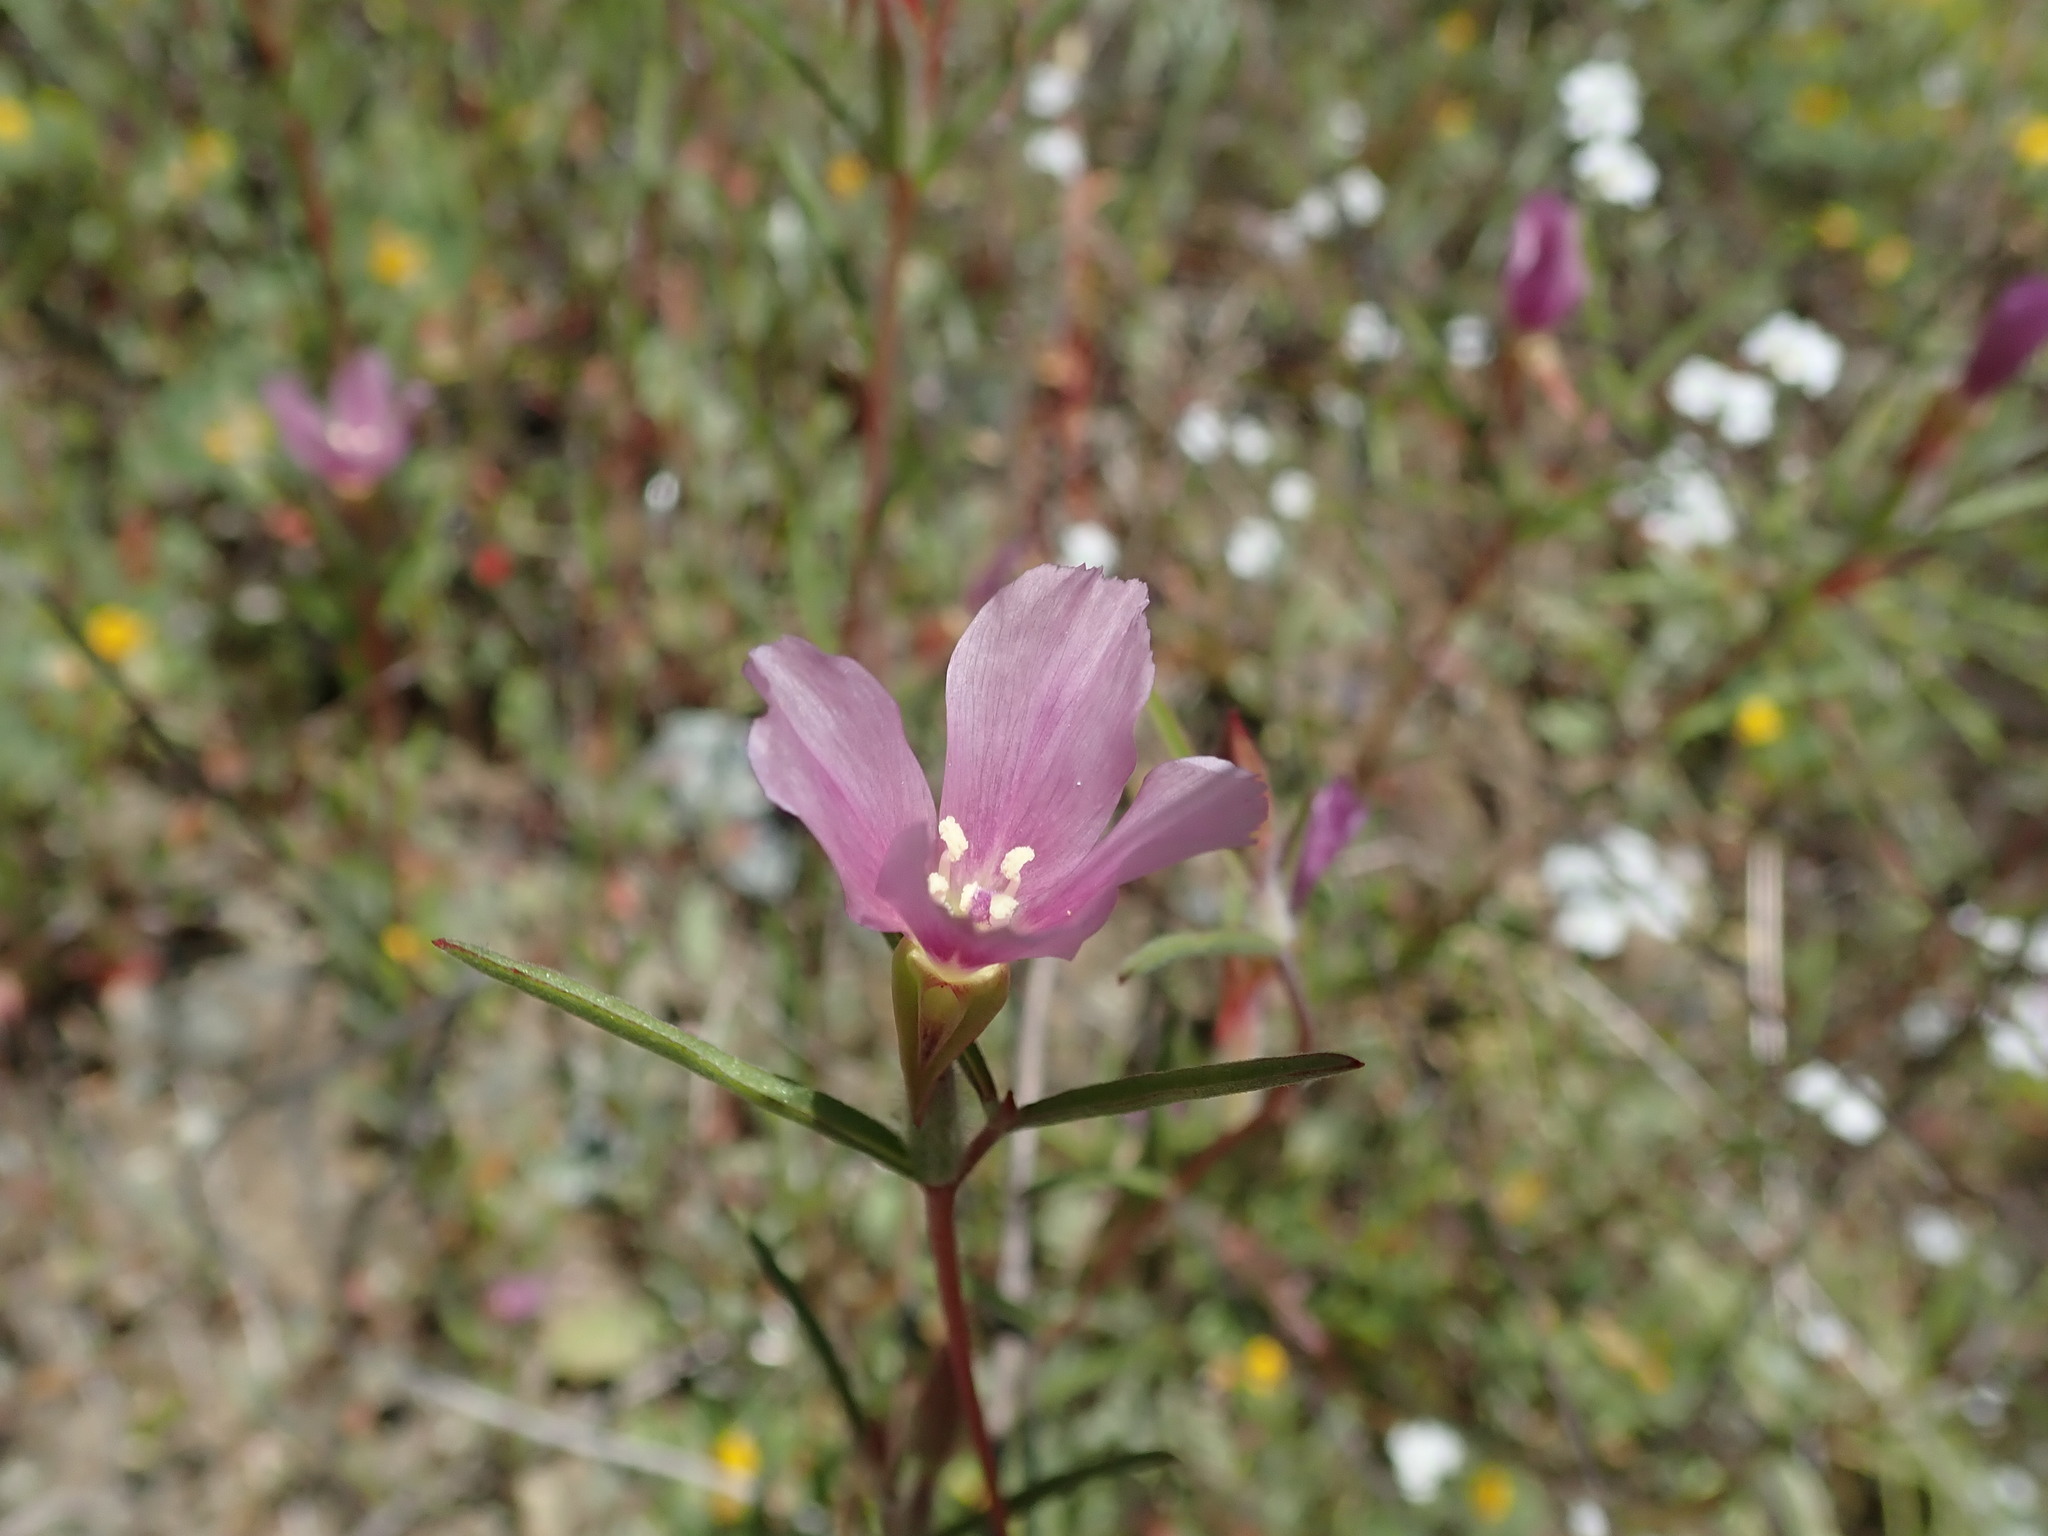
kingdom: Plantae
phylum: Tracheophyta
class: Magnoliopsida
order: Myrtales
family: Onagraceae
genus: Clarkia
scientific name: Clarkia purpurea
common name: Purple clarkia
